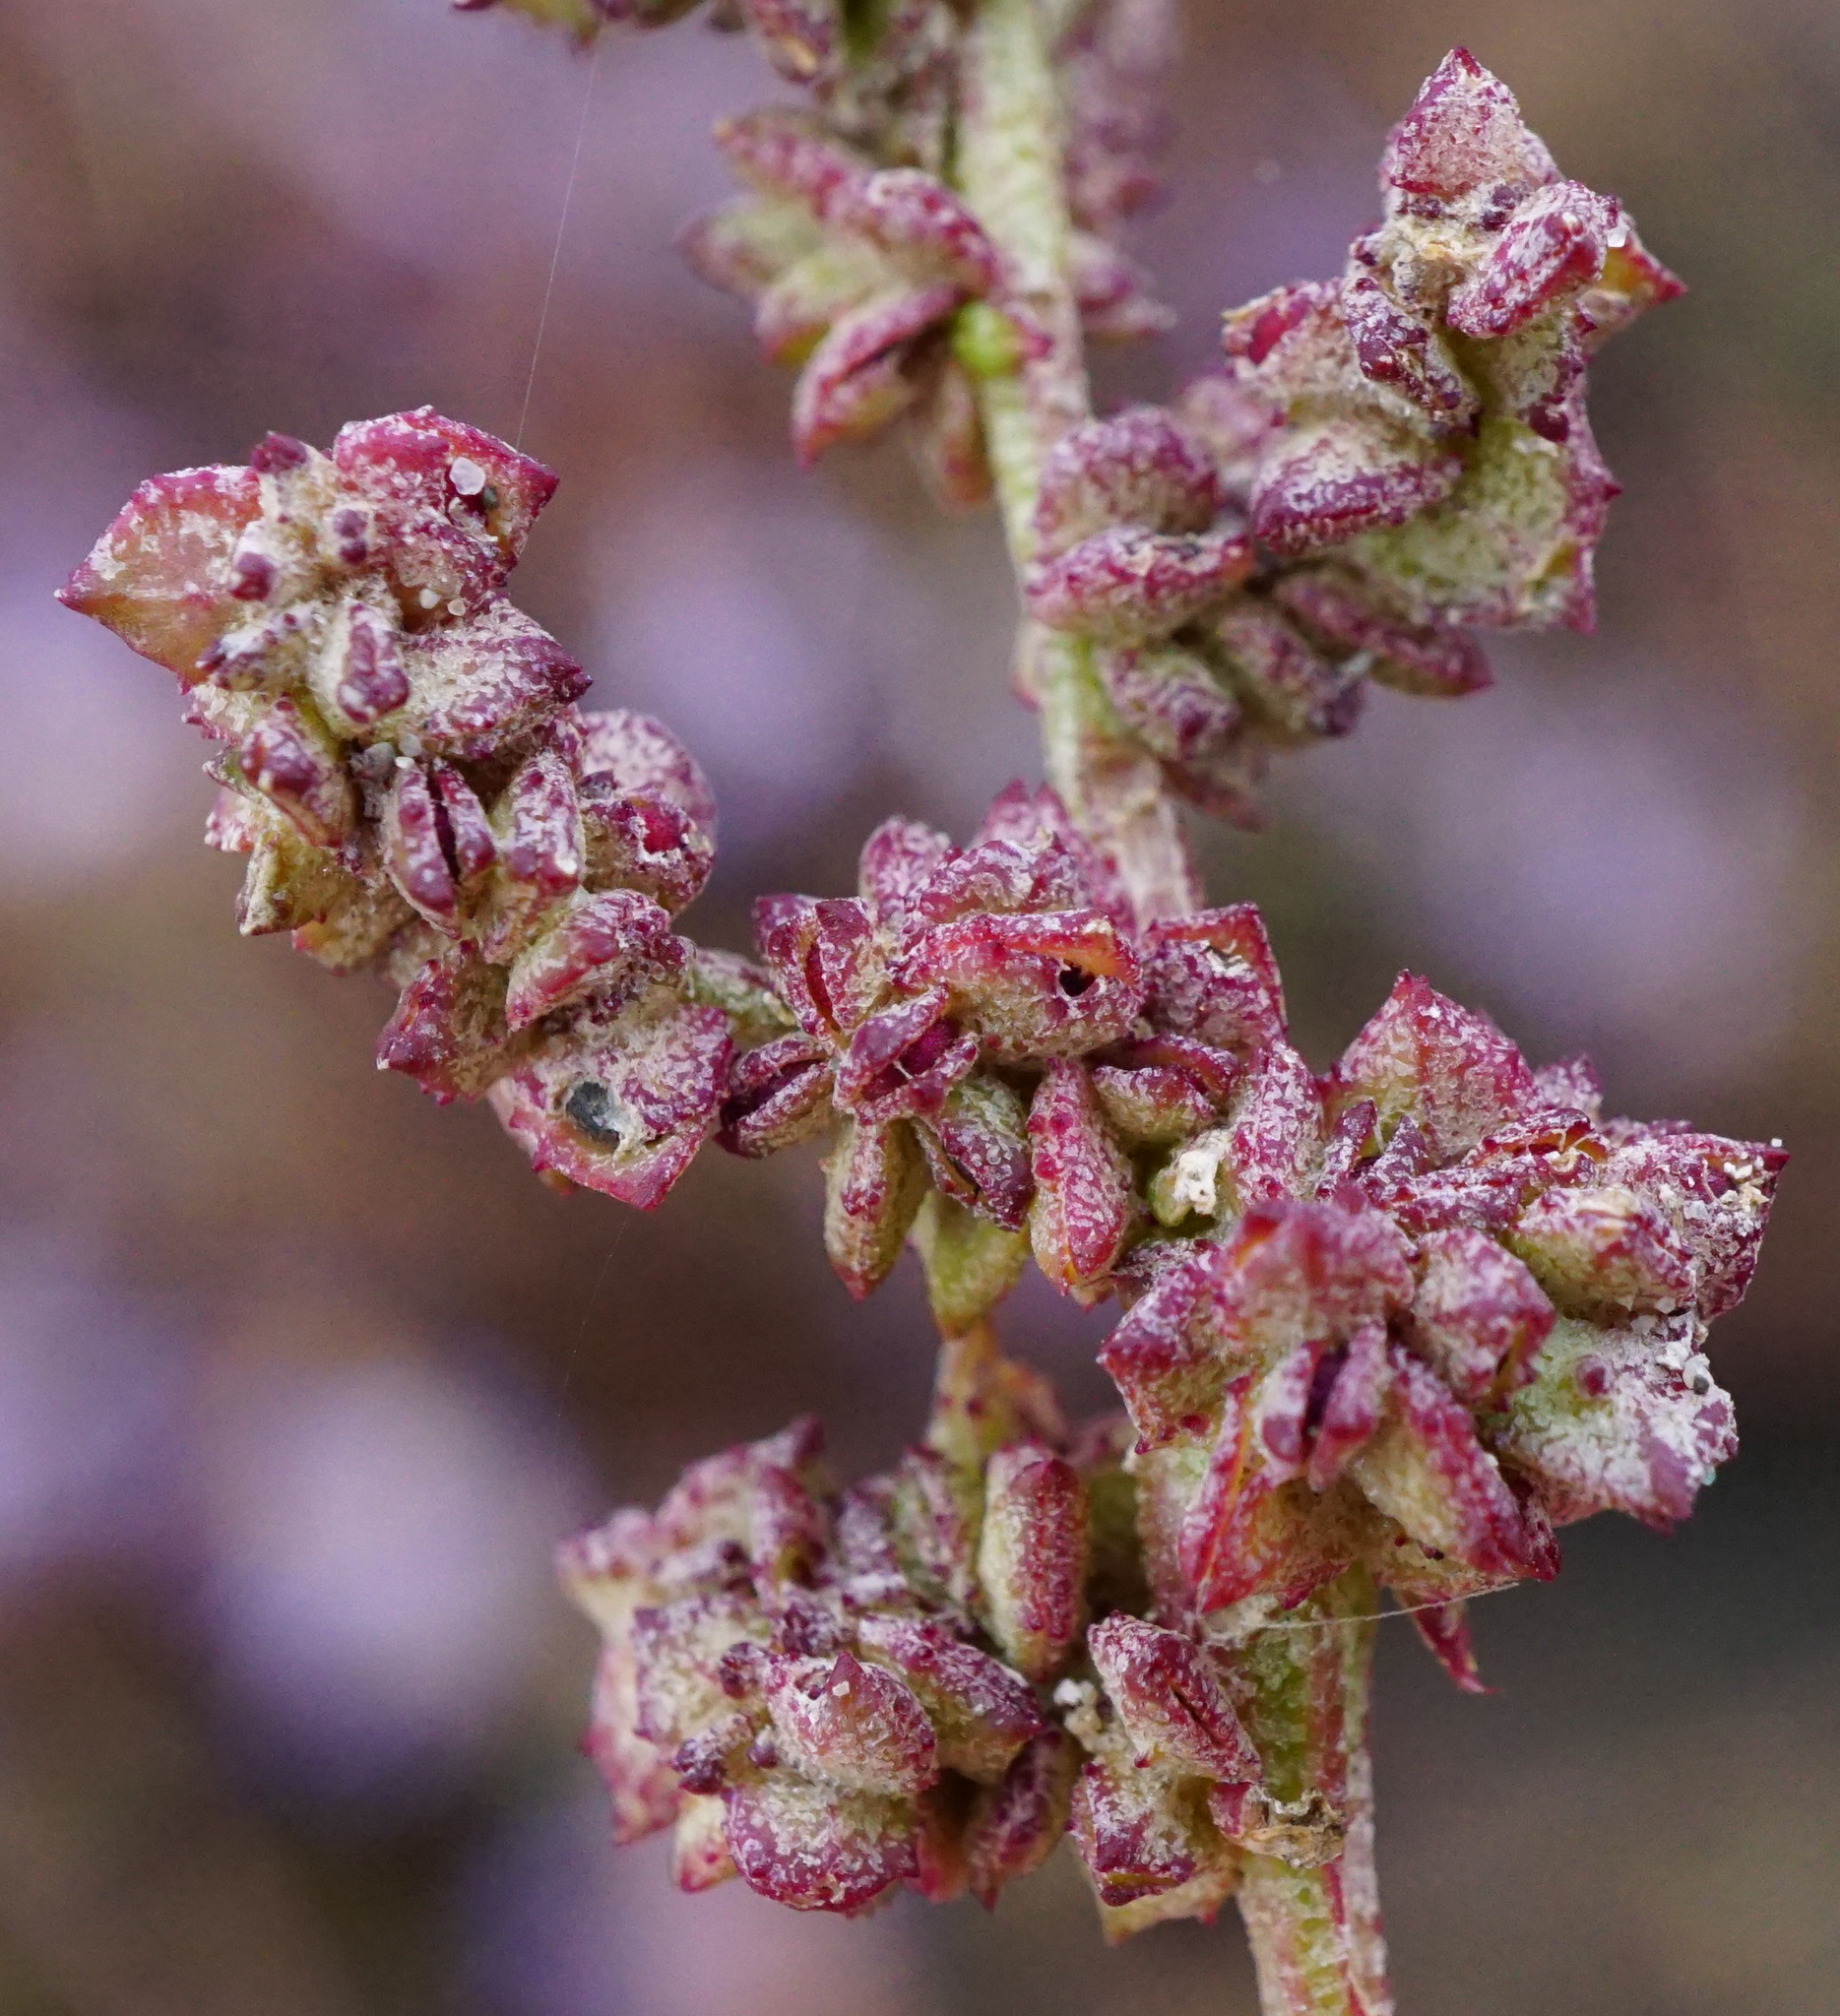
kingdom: Plantae
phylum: Tracheophyta
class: Magnoliopsida
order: Caryophyllales
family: Amaranthaceae
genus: Atriplex
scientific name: Atriplex prostrata
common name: Spear-leaved orache
